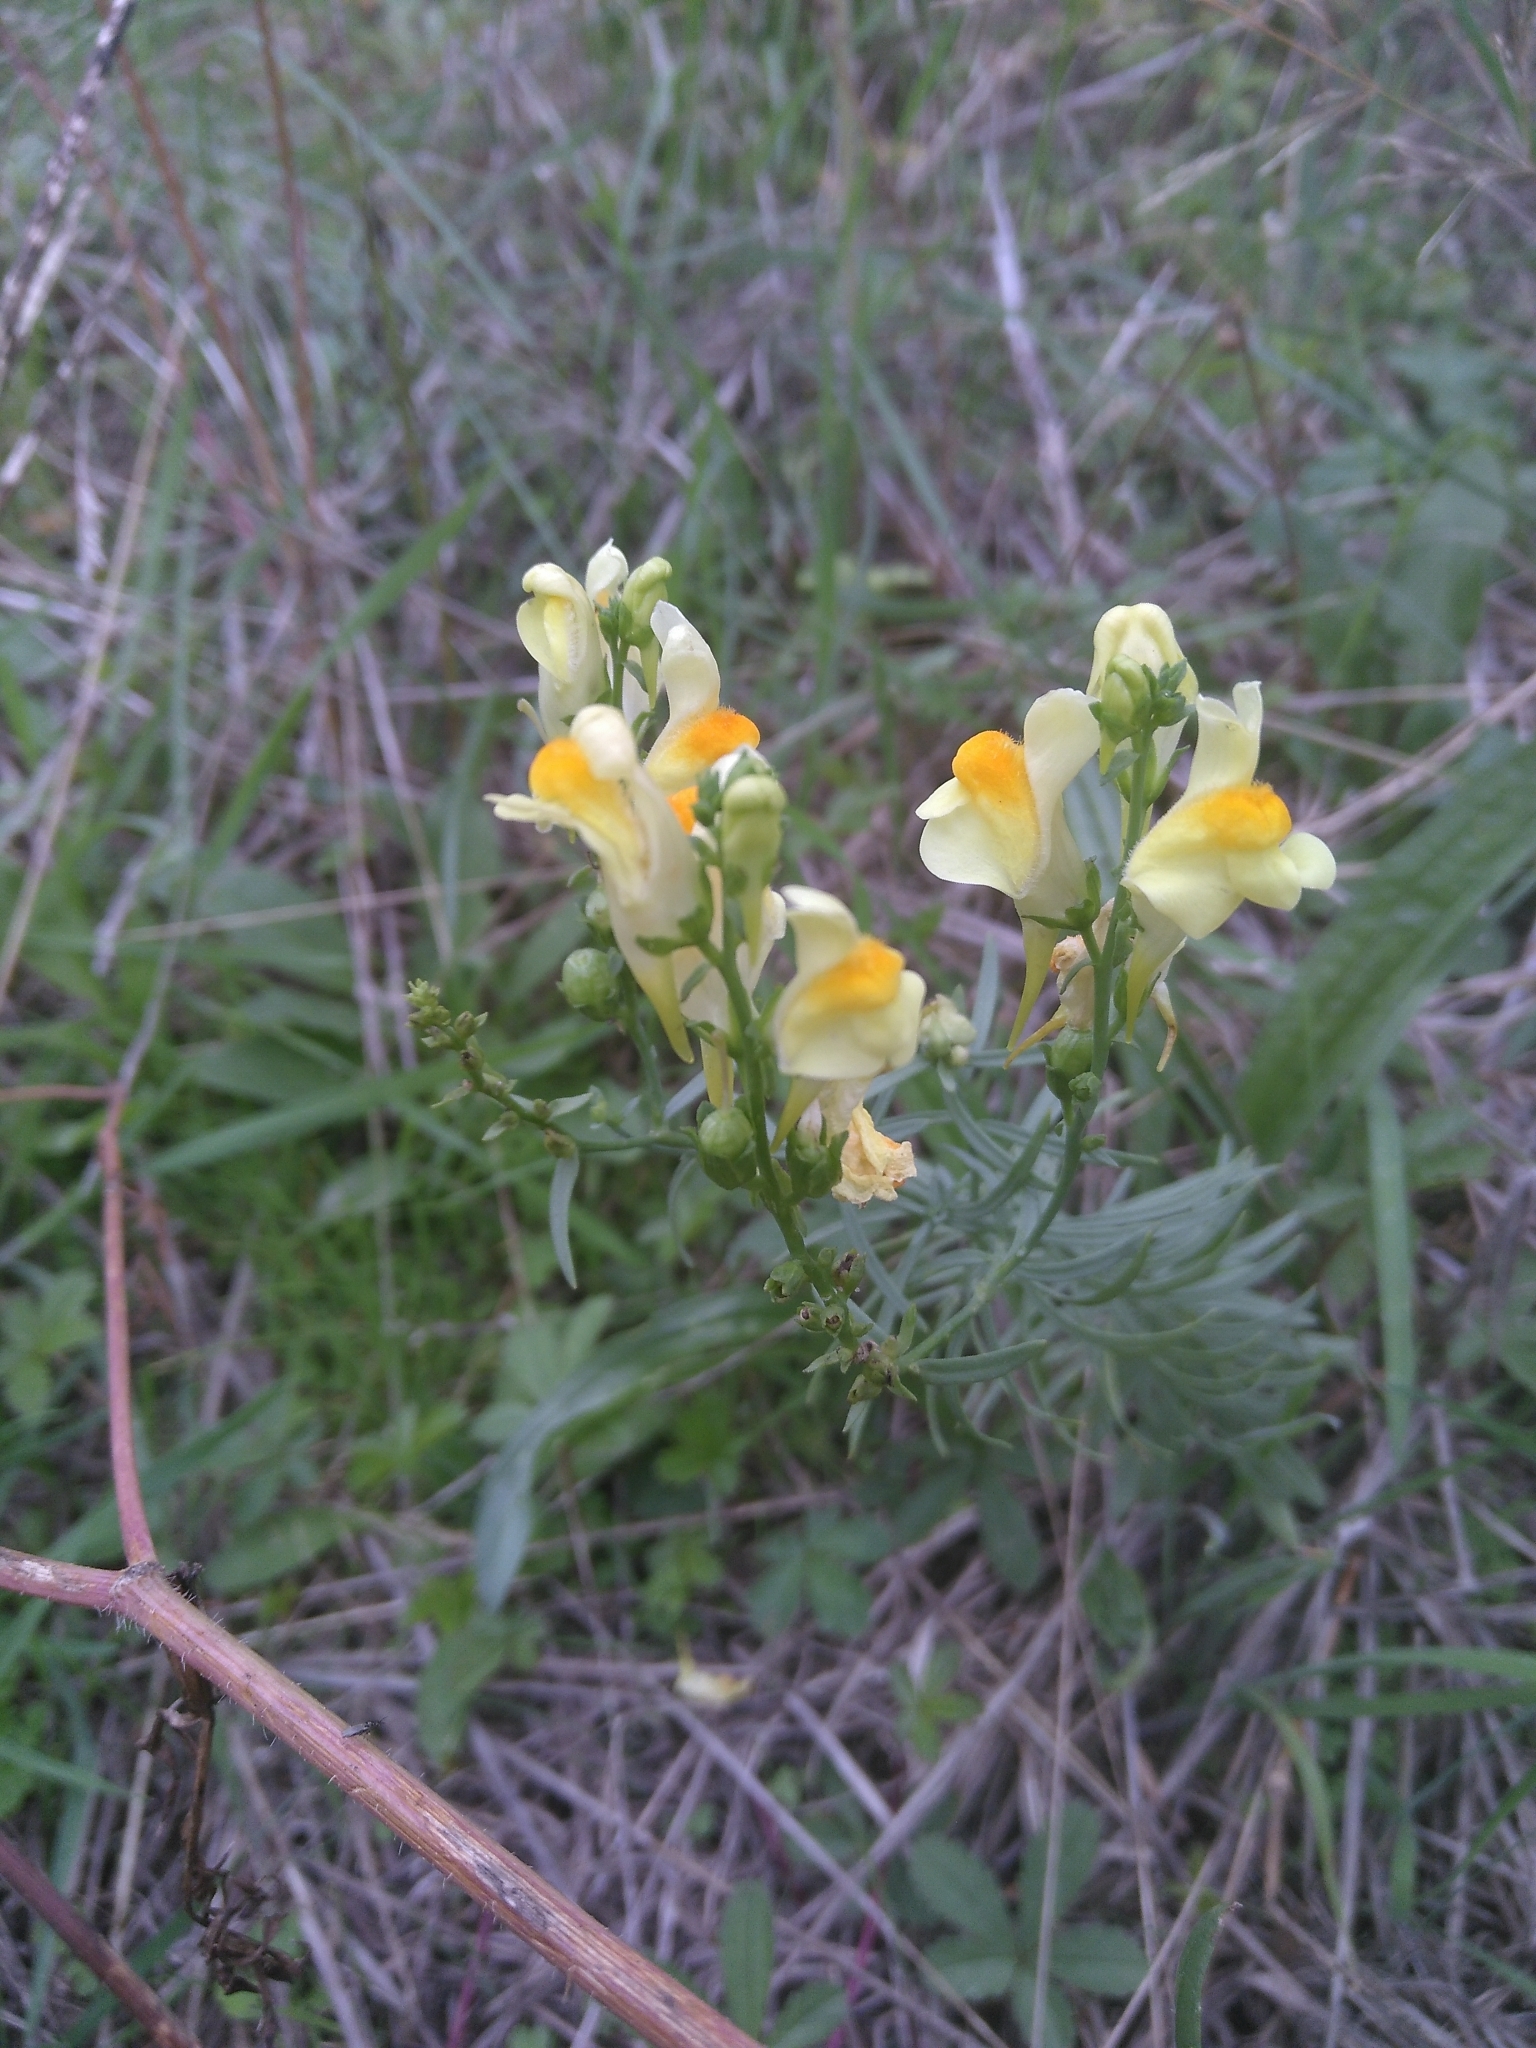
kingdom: Plantae
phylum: Tracheophyta
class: Magnoliopsida
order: Lamiales
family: Plantaginaceae
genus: Linaria
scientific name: Linaria vulgaris
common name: Butter and eggs
